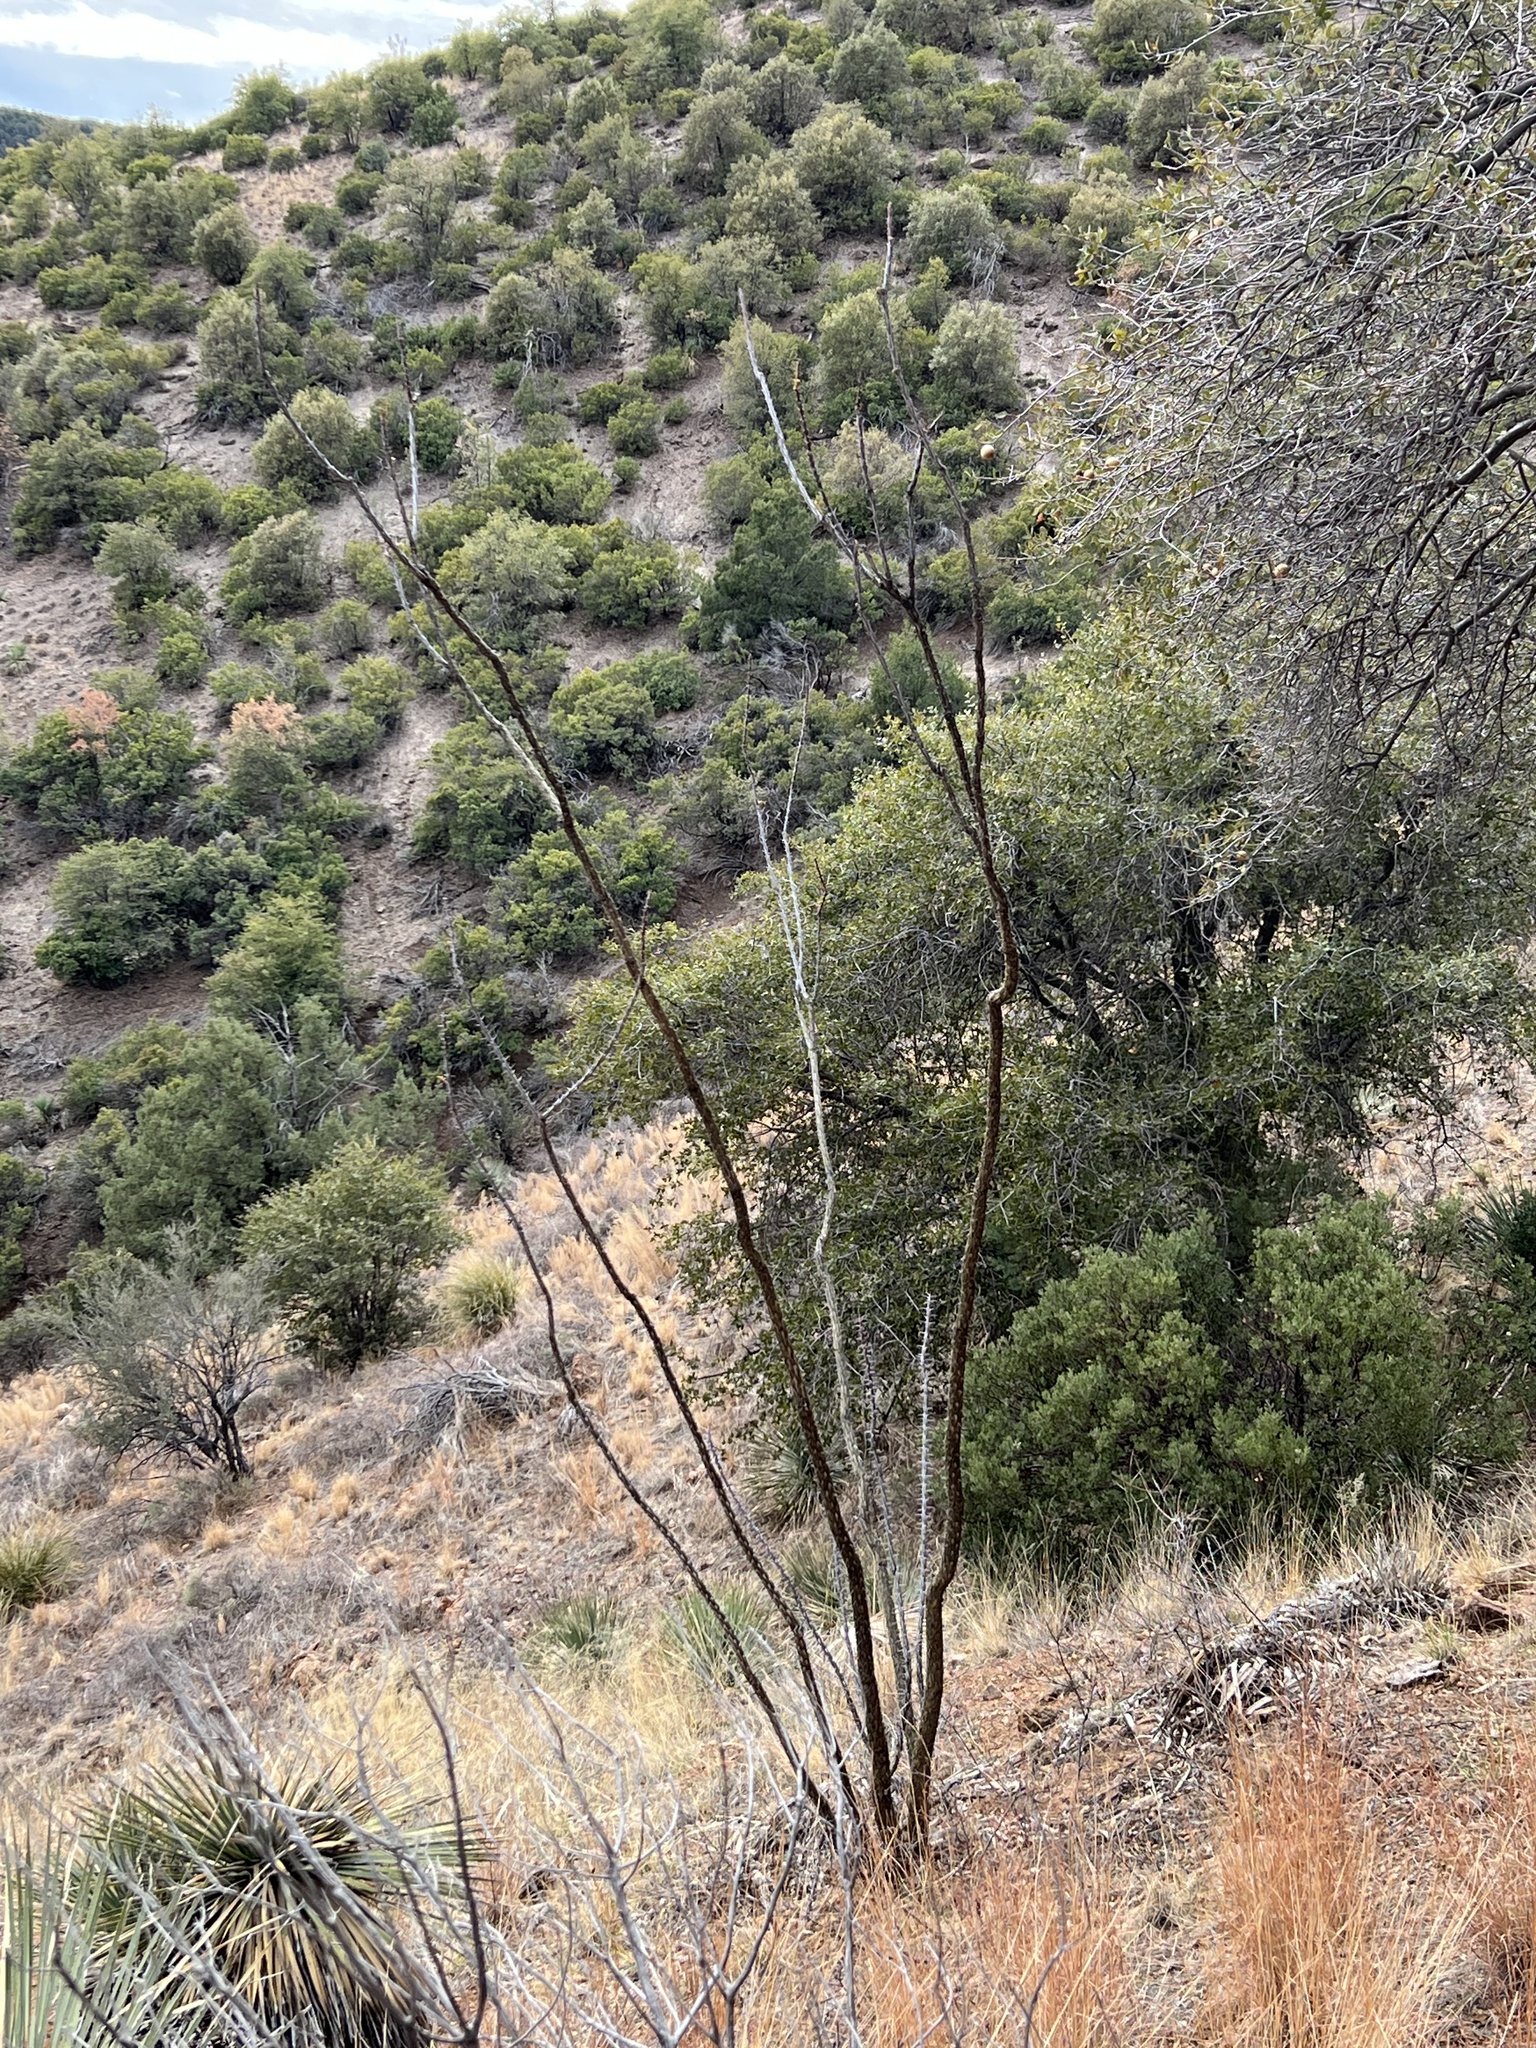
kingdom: Plantae
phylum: Tracheophyta
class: Magnoliopsida
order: Ericales
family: Fouquieriaceae
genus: Fouquieria
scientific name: Fouquieria splendens
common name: Vine-cactus
